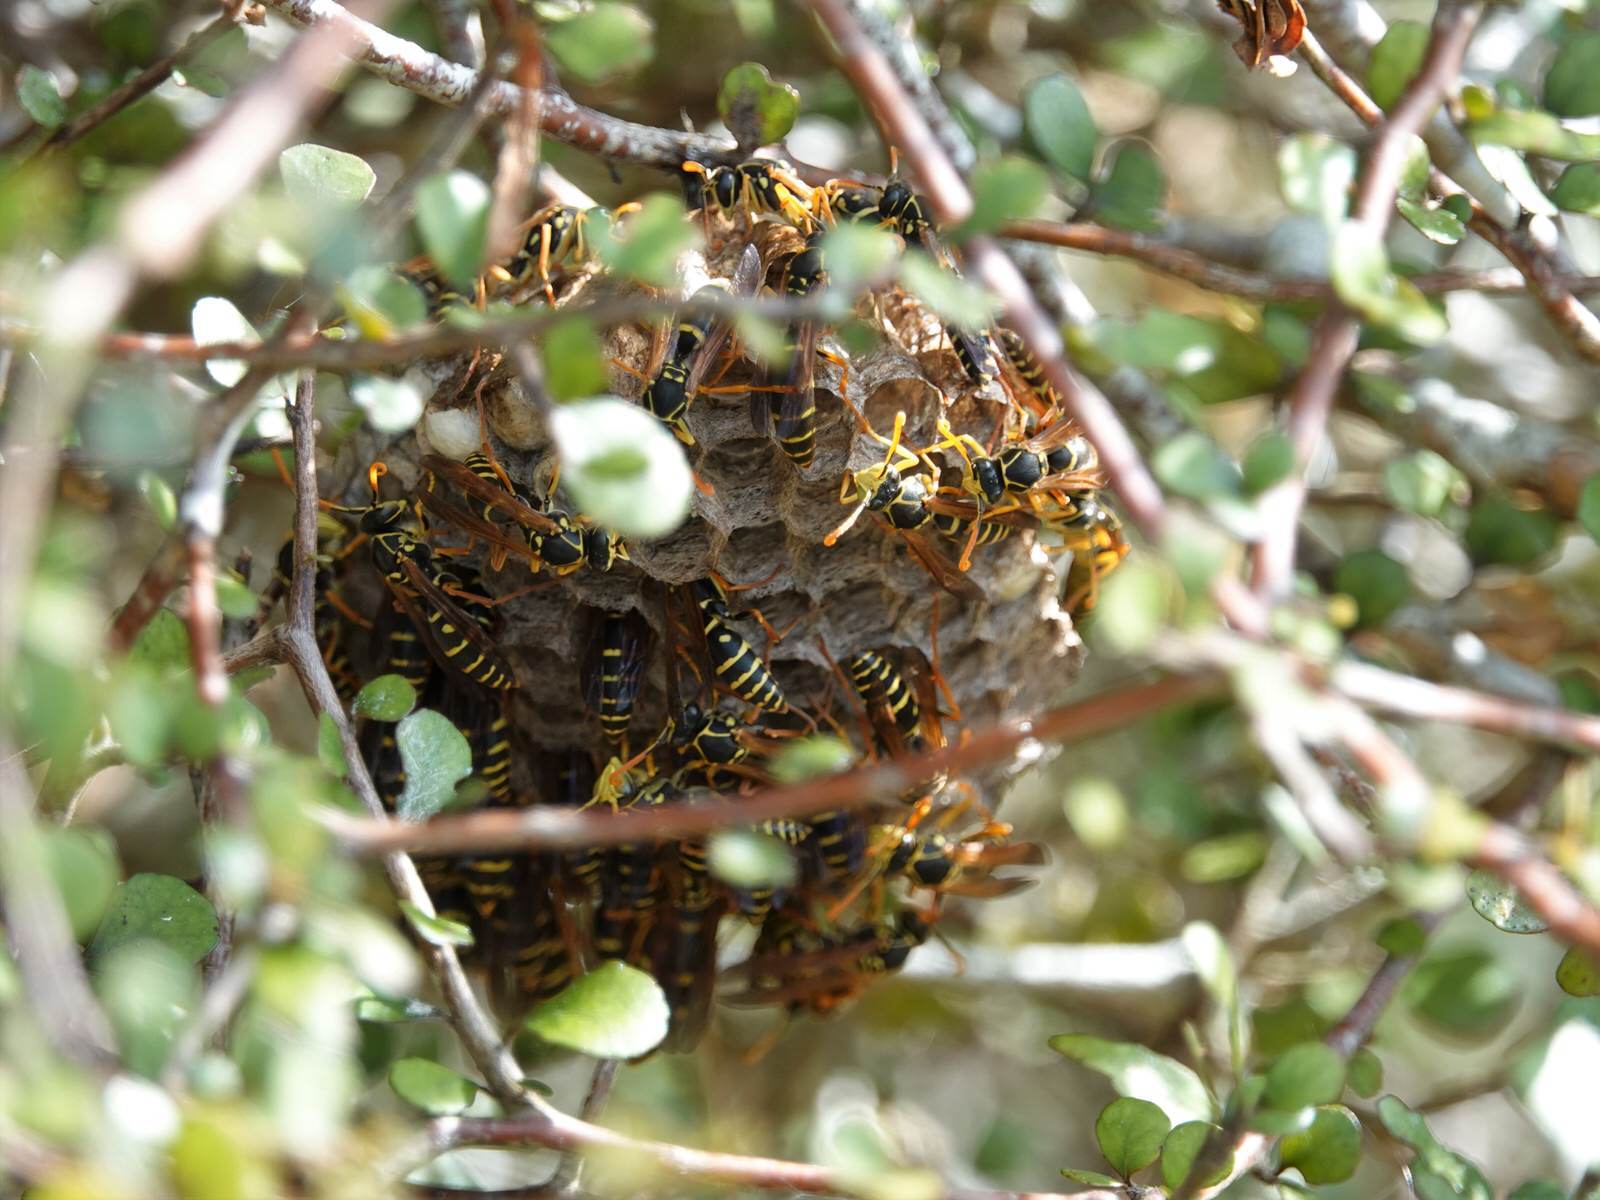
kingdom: Animalia
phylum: Arthropoda
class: Insecta
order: Hymenoptera
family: Eumenidae
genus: Polistes
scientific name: Polistes chinensis
